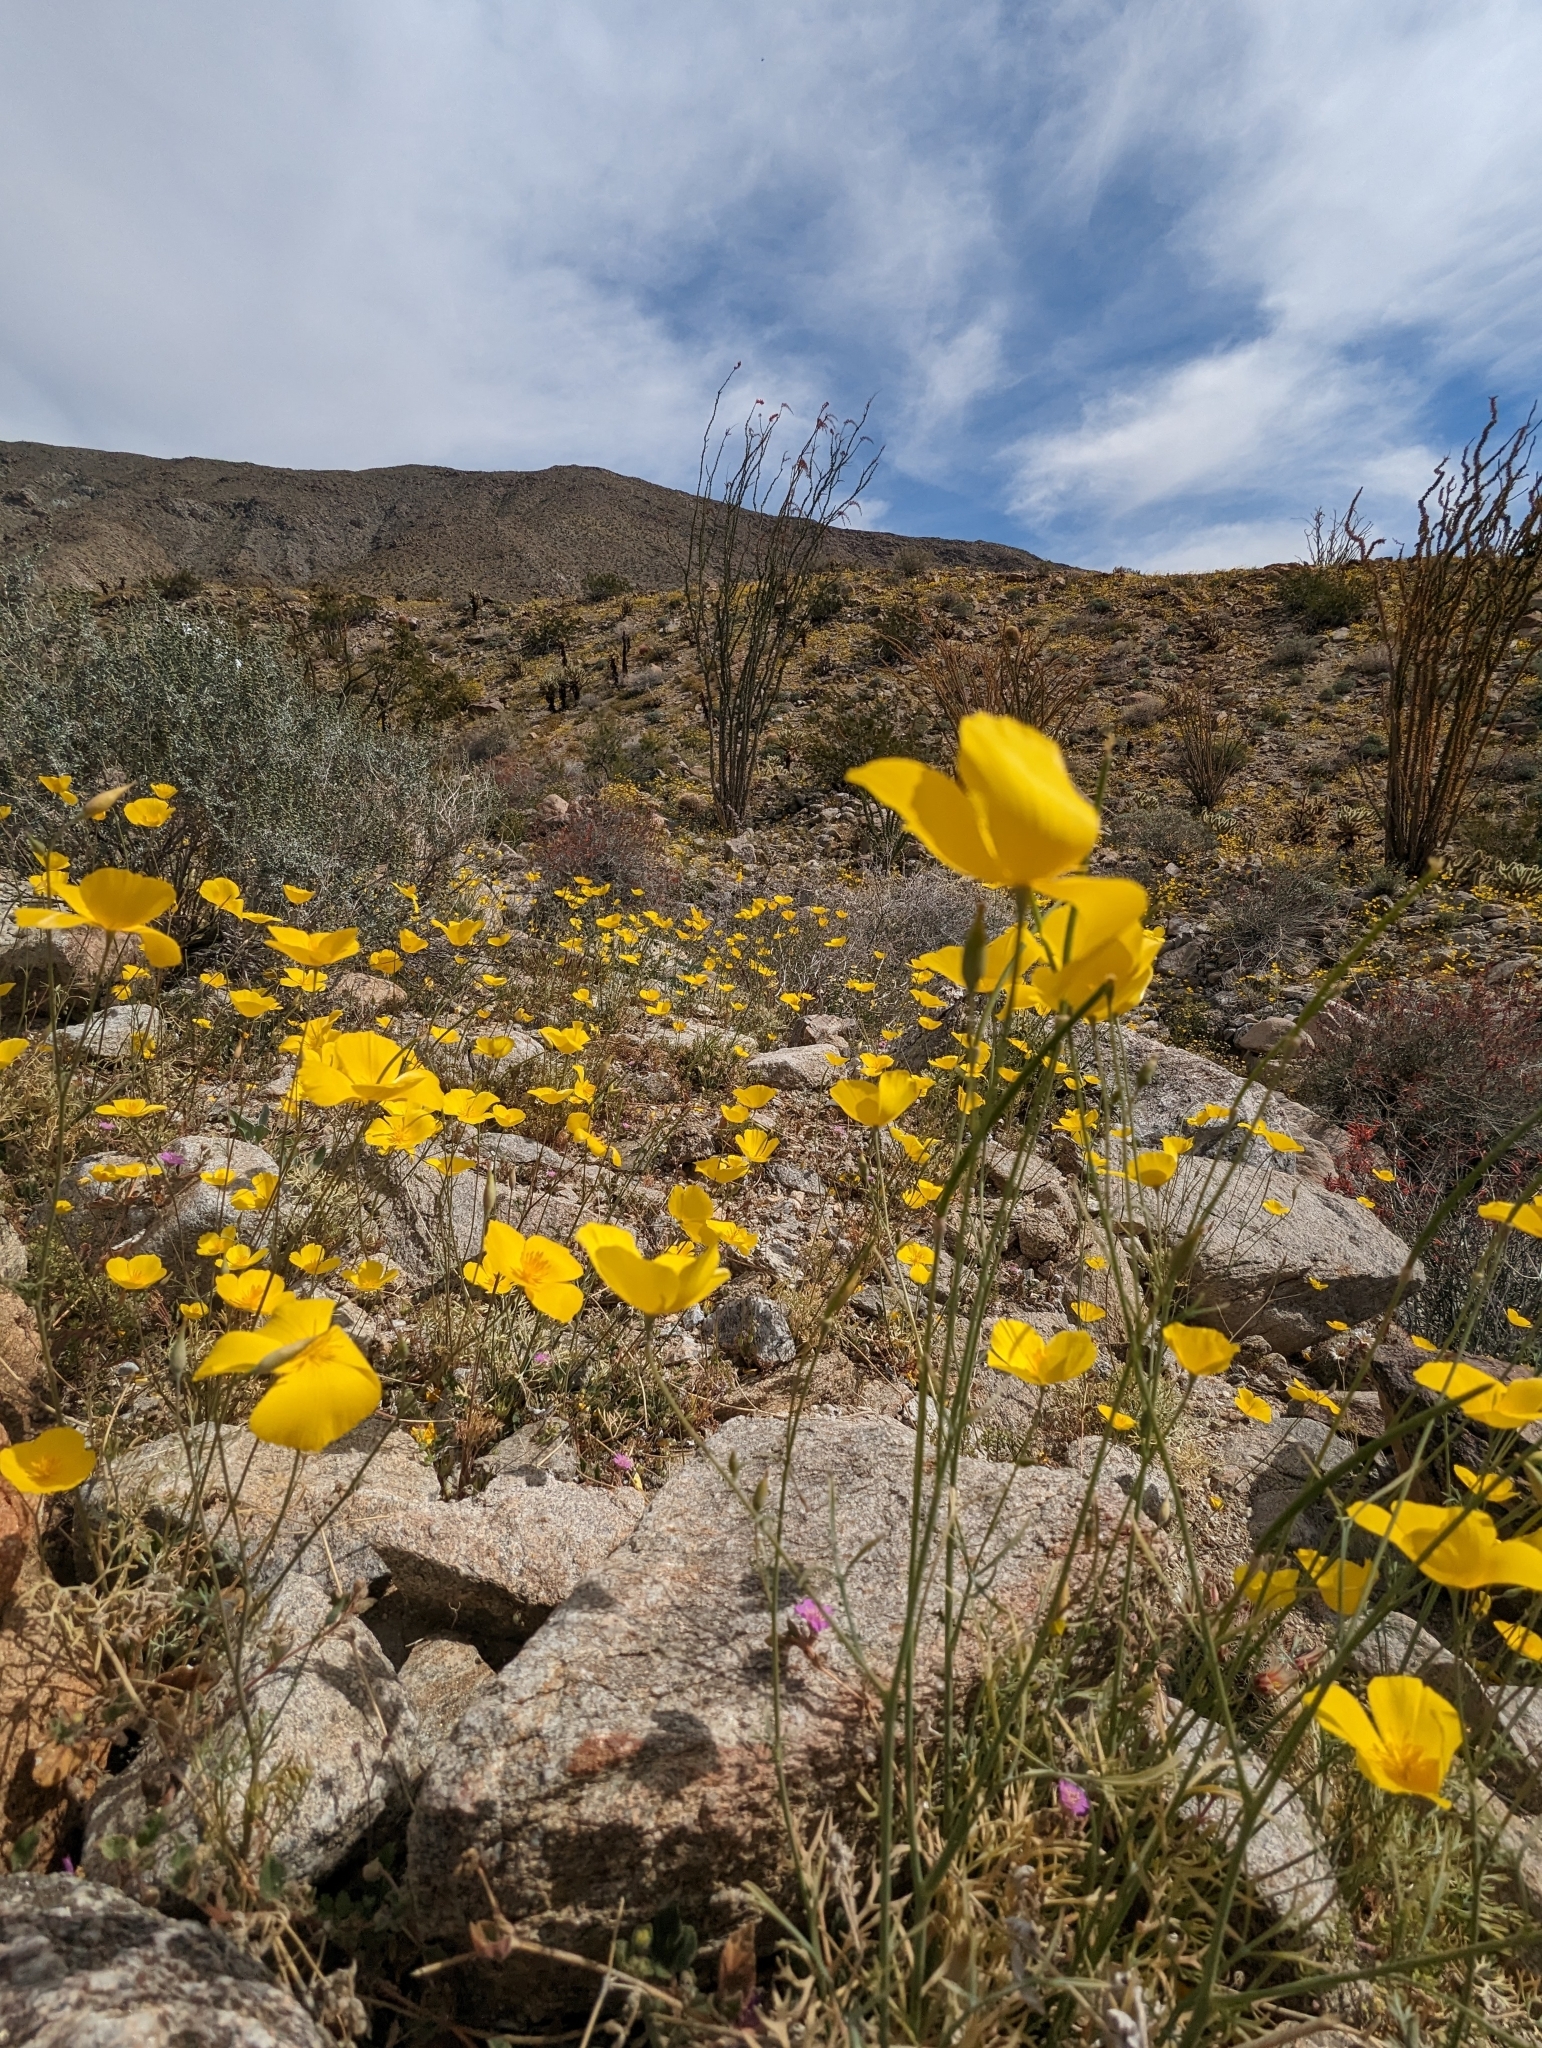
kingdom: Plantae
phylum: Tracheophyta
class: Magnoliopsida
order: Ranunculales
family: Papaveraceae
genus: Eschscholzia
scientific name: Eschscholzia parishii
